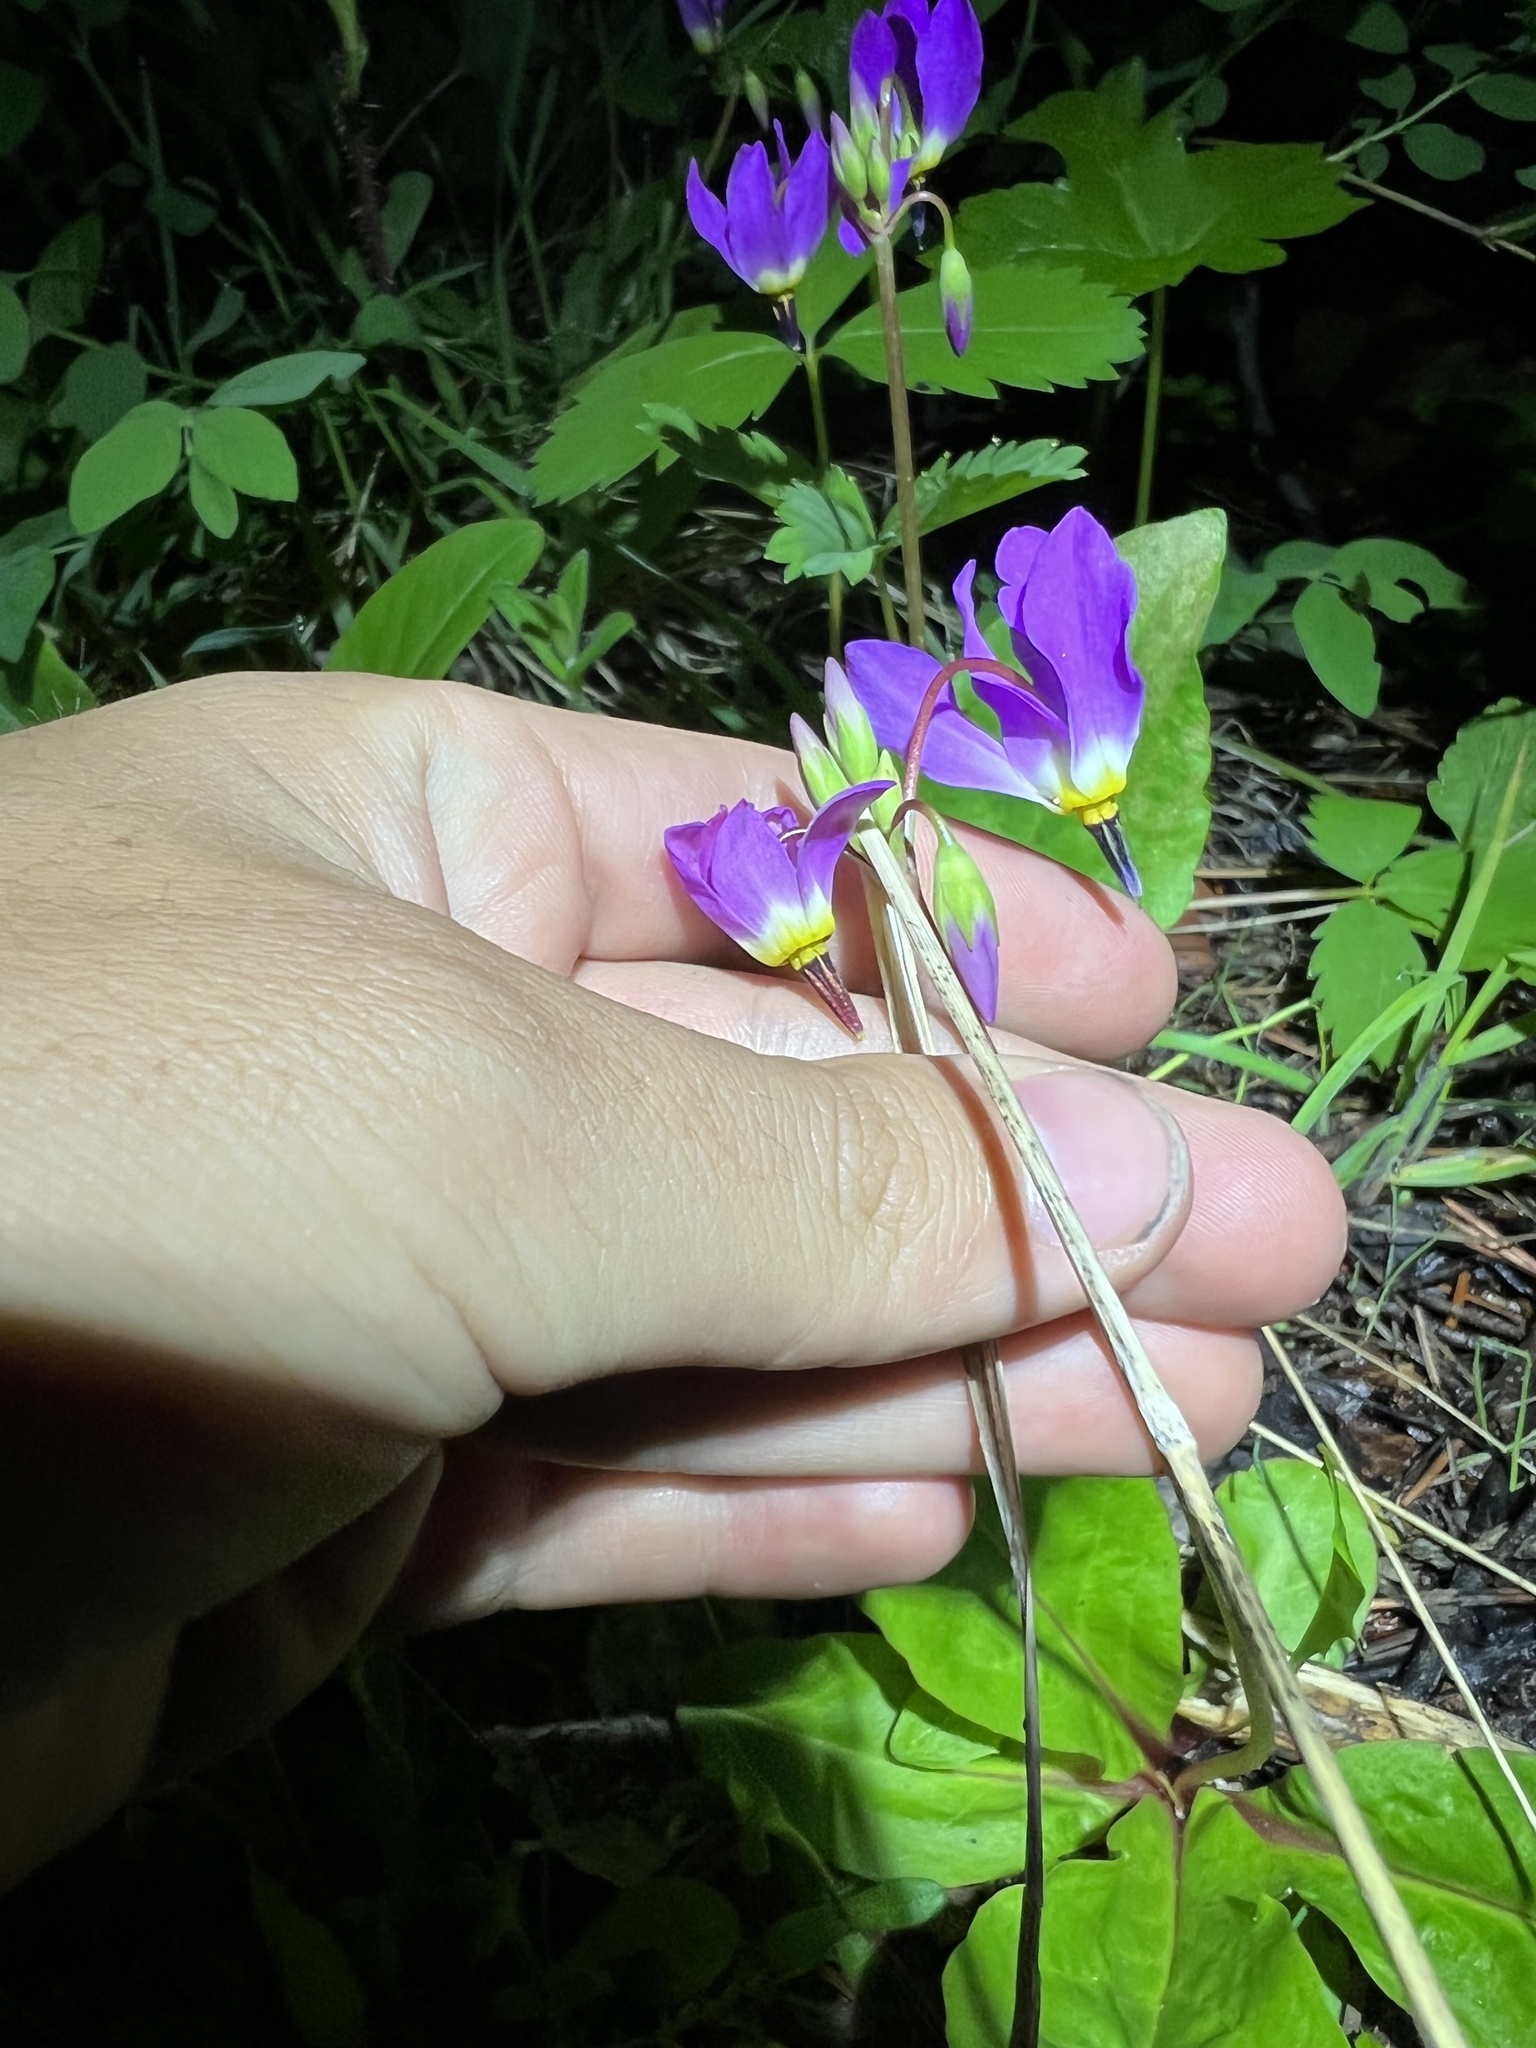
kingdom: Plantae
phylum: Tracheophyta
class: Magnoliopsida
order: Ericales
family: Primulaceae
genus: Dodecatheon
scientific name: Dodecatheon pulchellum
